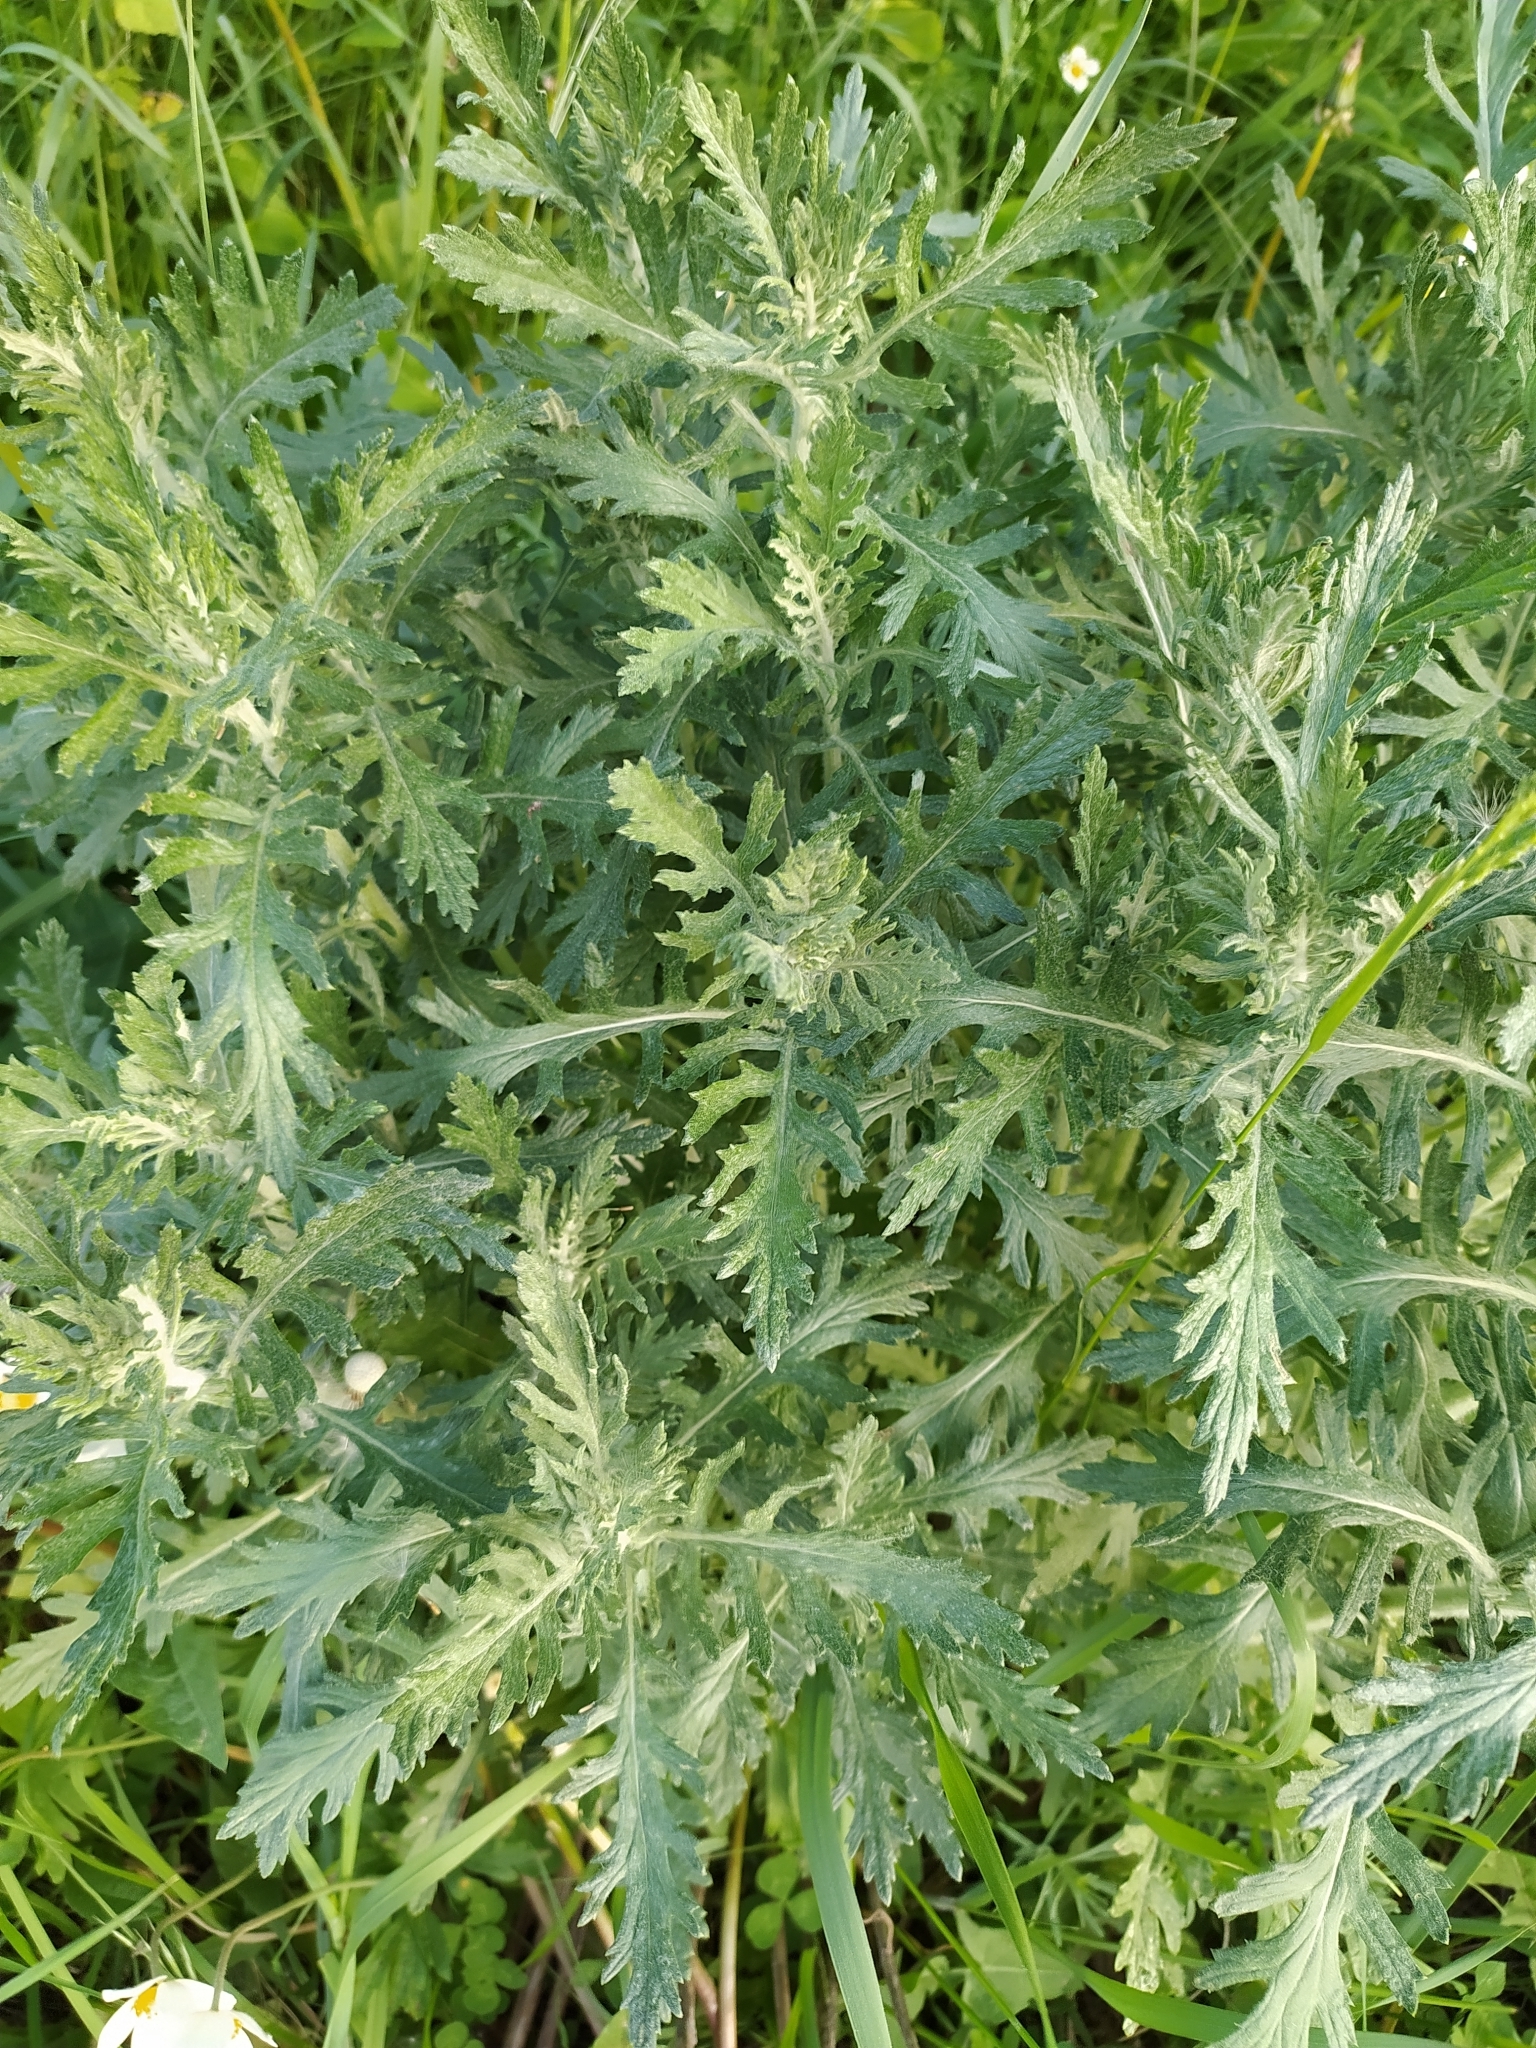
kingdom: Plantae
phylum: Tracheophyta
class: Magnoliopsida
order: Asterales
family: Asteraceae
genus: Jacobaea
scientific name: Jacobaea erucifolia
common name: Hoary ragwort
